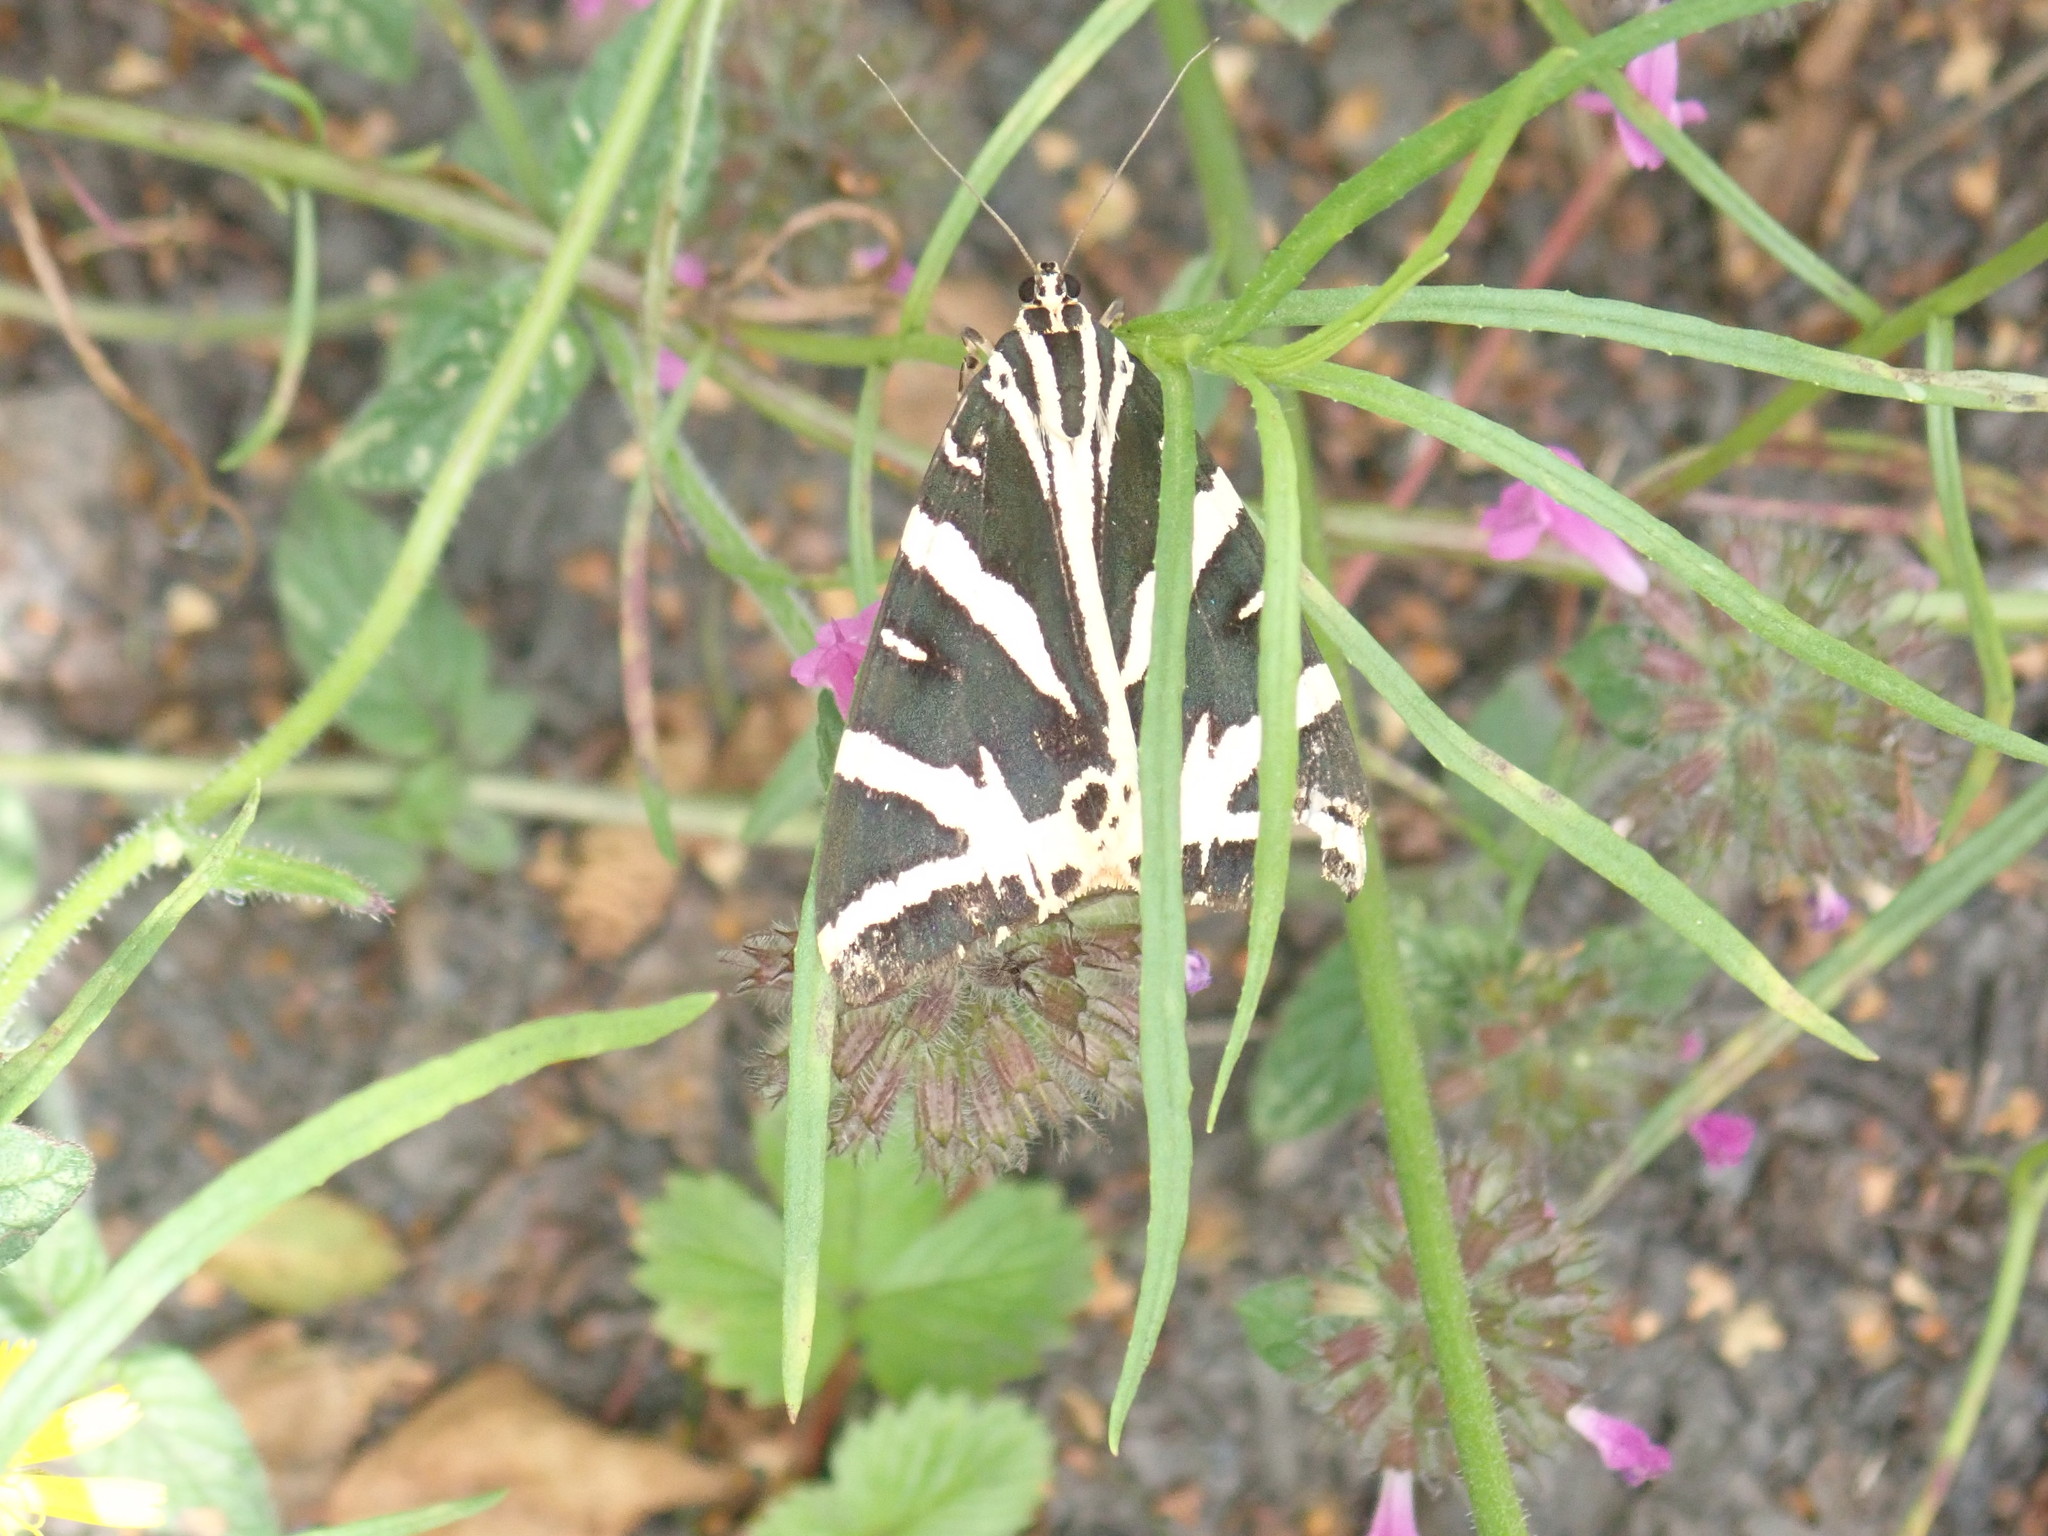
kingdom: Animalia
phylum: Arthropoda
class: Insecta
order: Lepidoptera
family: Erebidae
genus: Euplagia
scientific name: Euplagia quadripunctaria
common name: Jersey tiger
